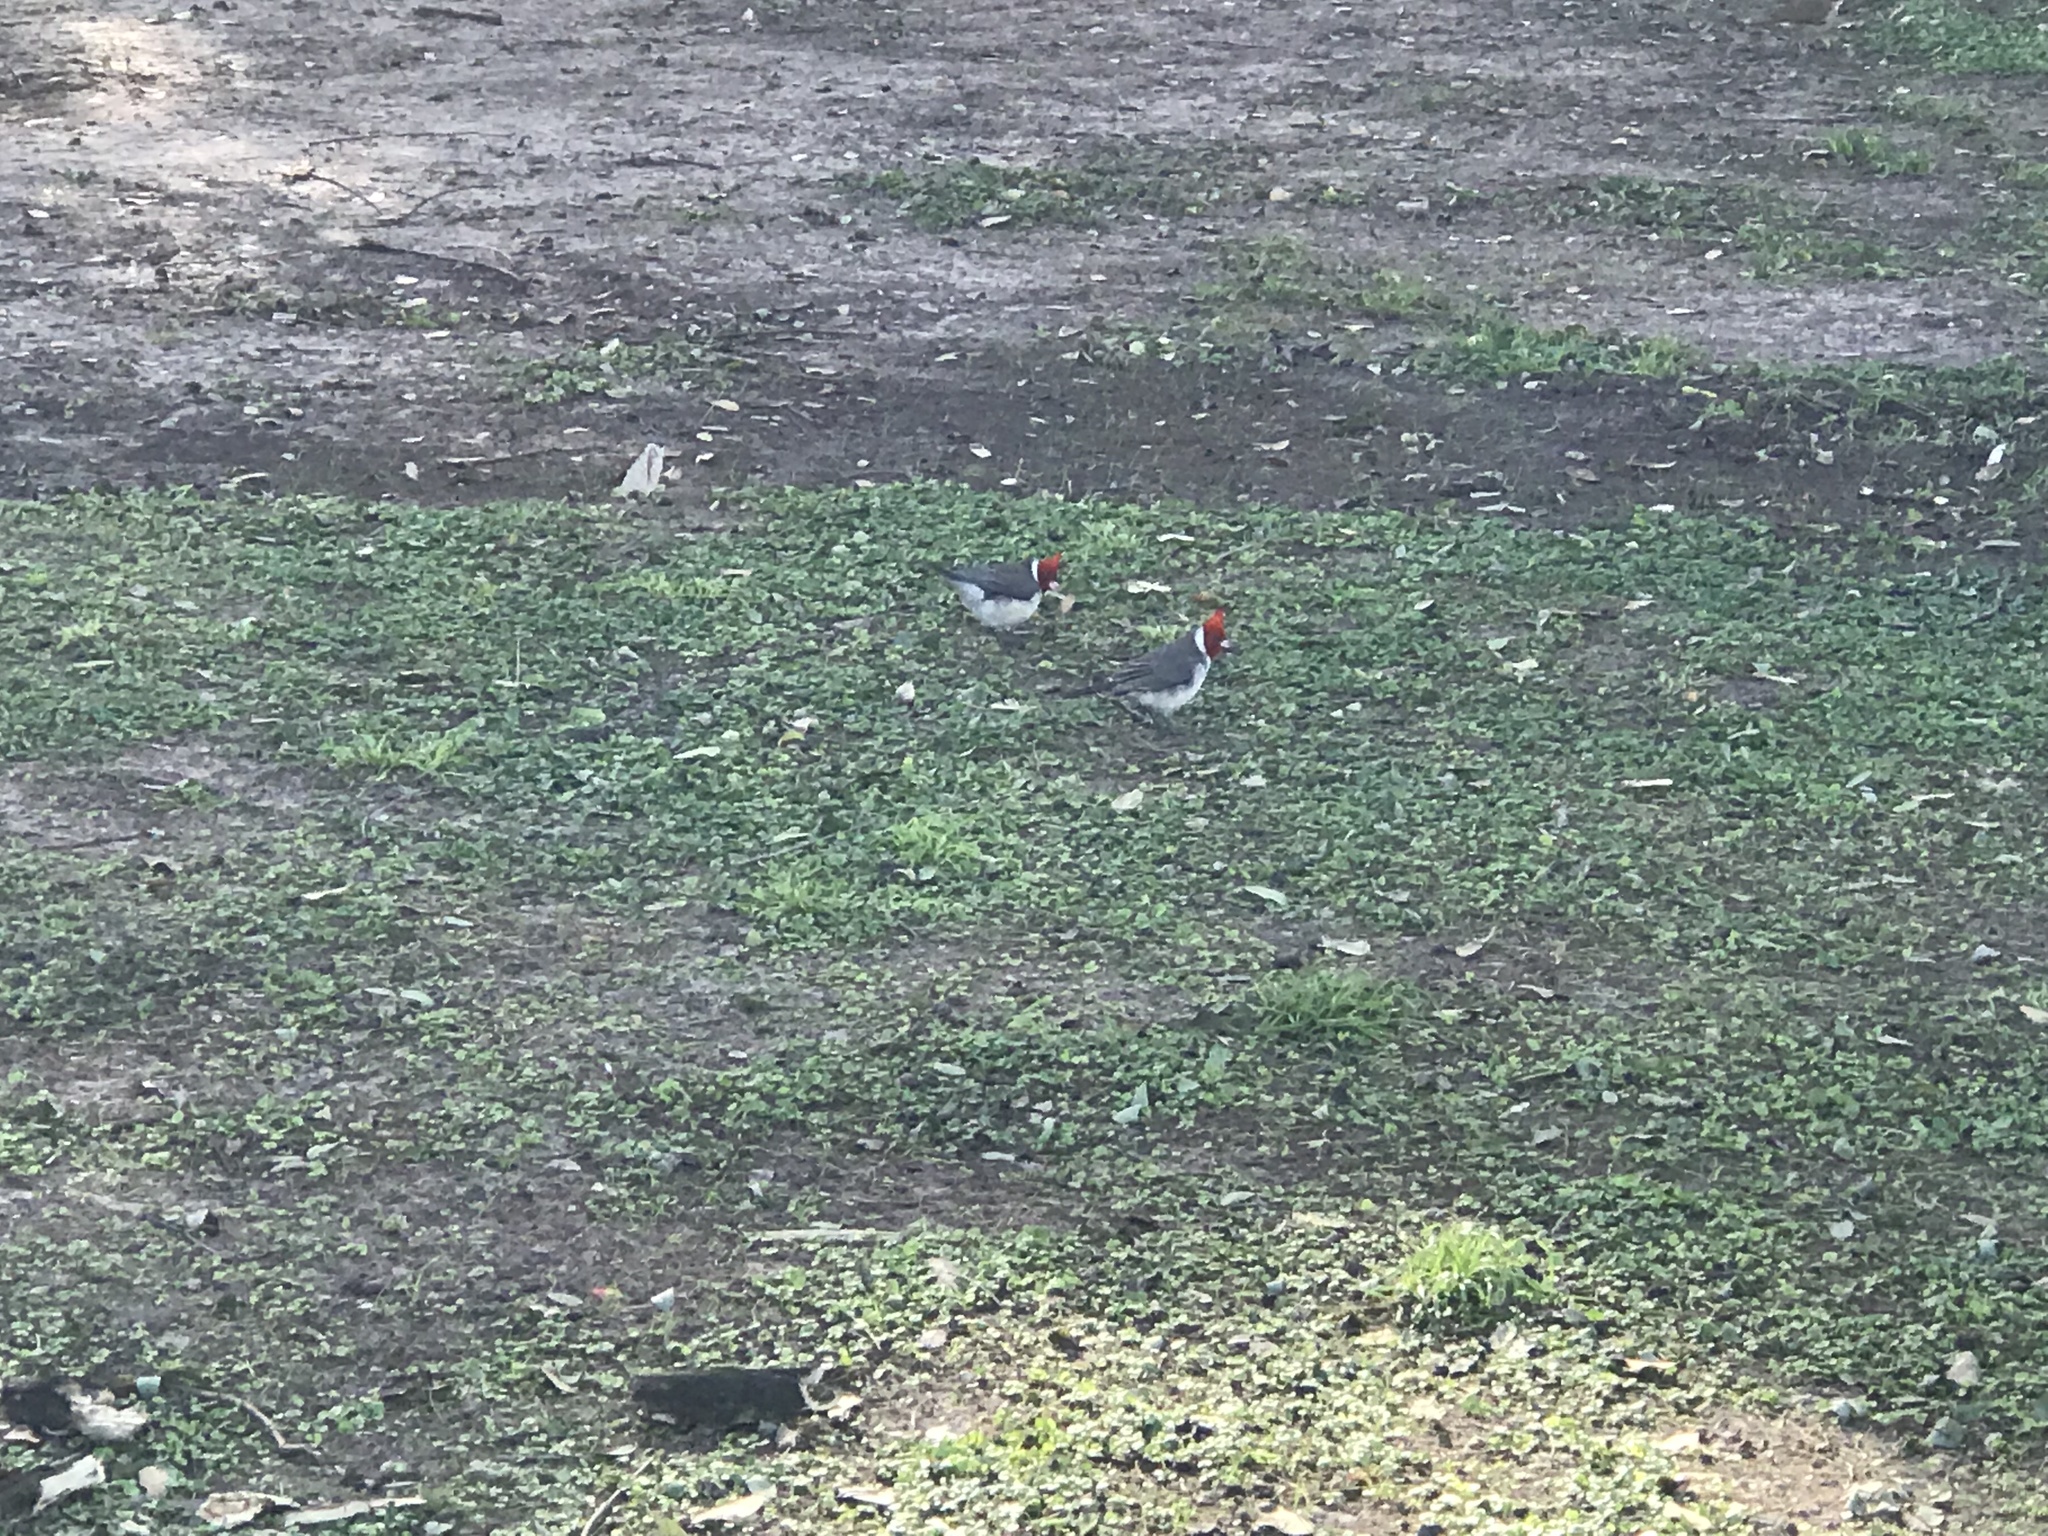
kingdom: Animalia
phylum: Chordata
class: Aves
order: Passeriformes
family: Thraupidae
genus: Paroaria
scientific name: Paroaria coronata
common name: Red-crested cardinal
